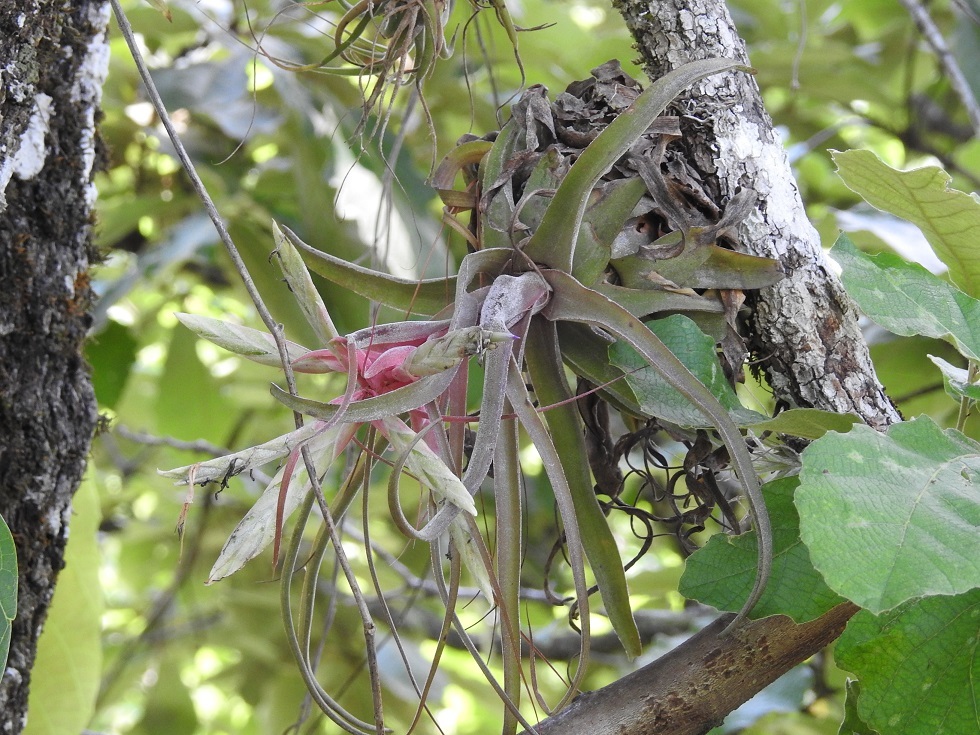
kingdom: Plantae
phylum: Tracheophyta
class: Liliopsida
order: Poales
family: Bromeliaceae
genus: Tillandsia
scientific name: Tillandsia streptophylla
